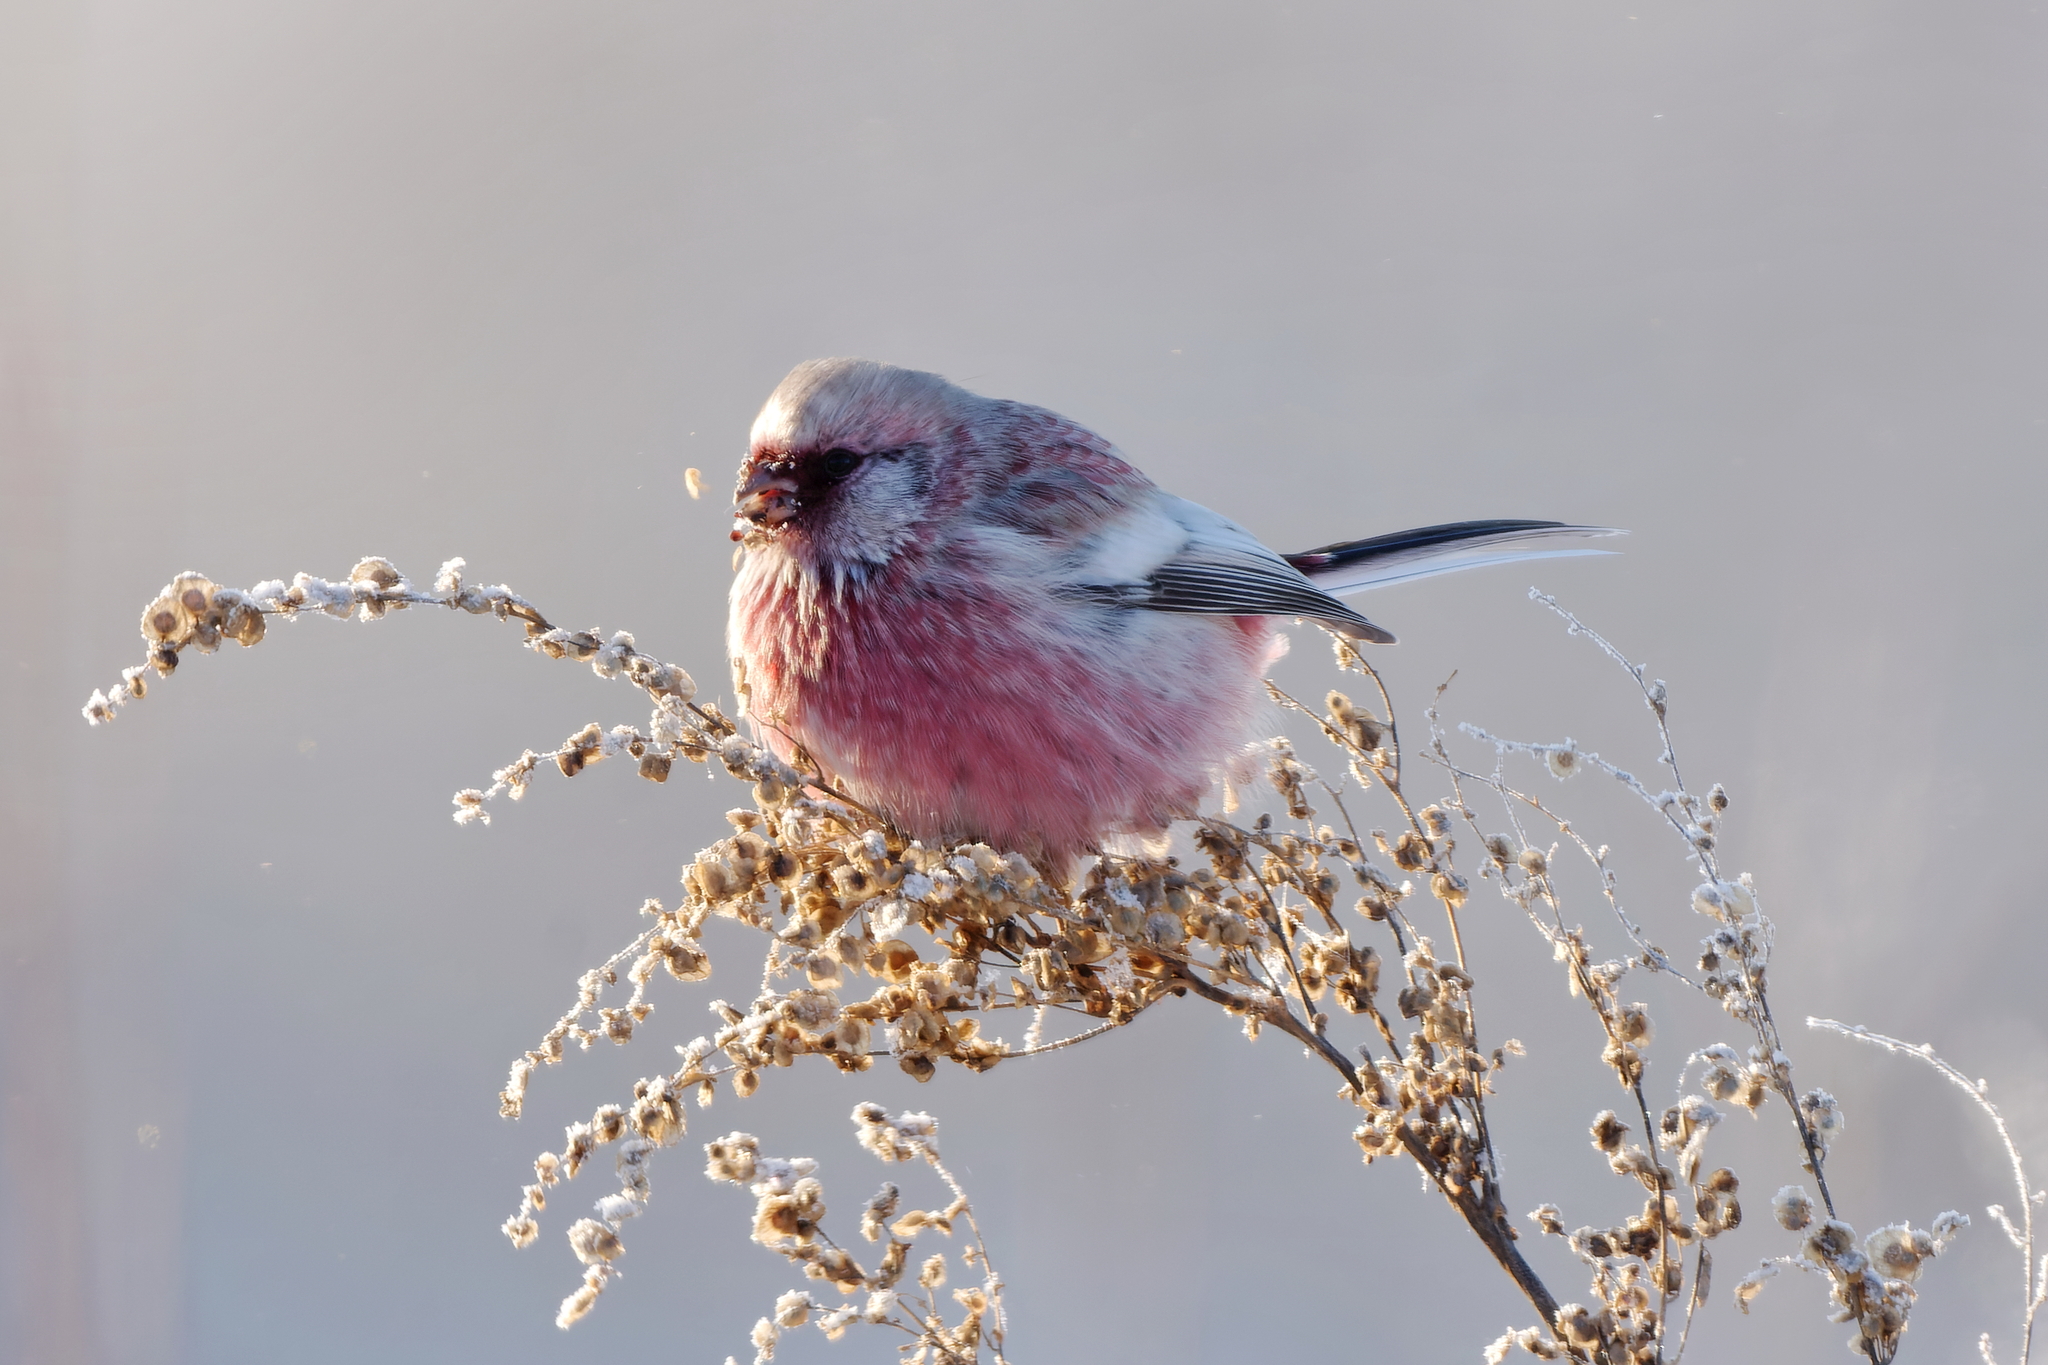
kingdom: Animalia
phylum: Chordata
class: Aves
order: Passeriformes
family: Fringillidae
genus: Carpodacus
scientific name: Carpodacus sibiricus
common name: Long-tailed rosefinch
